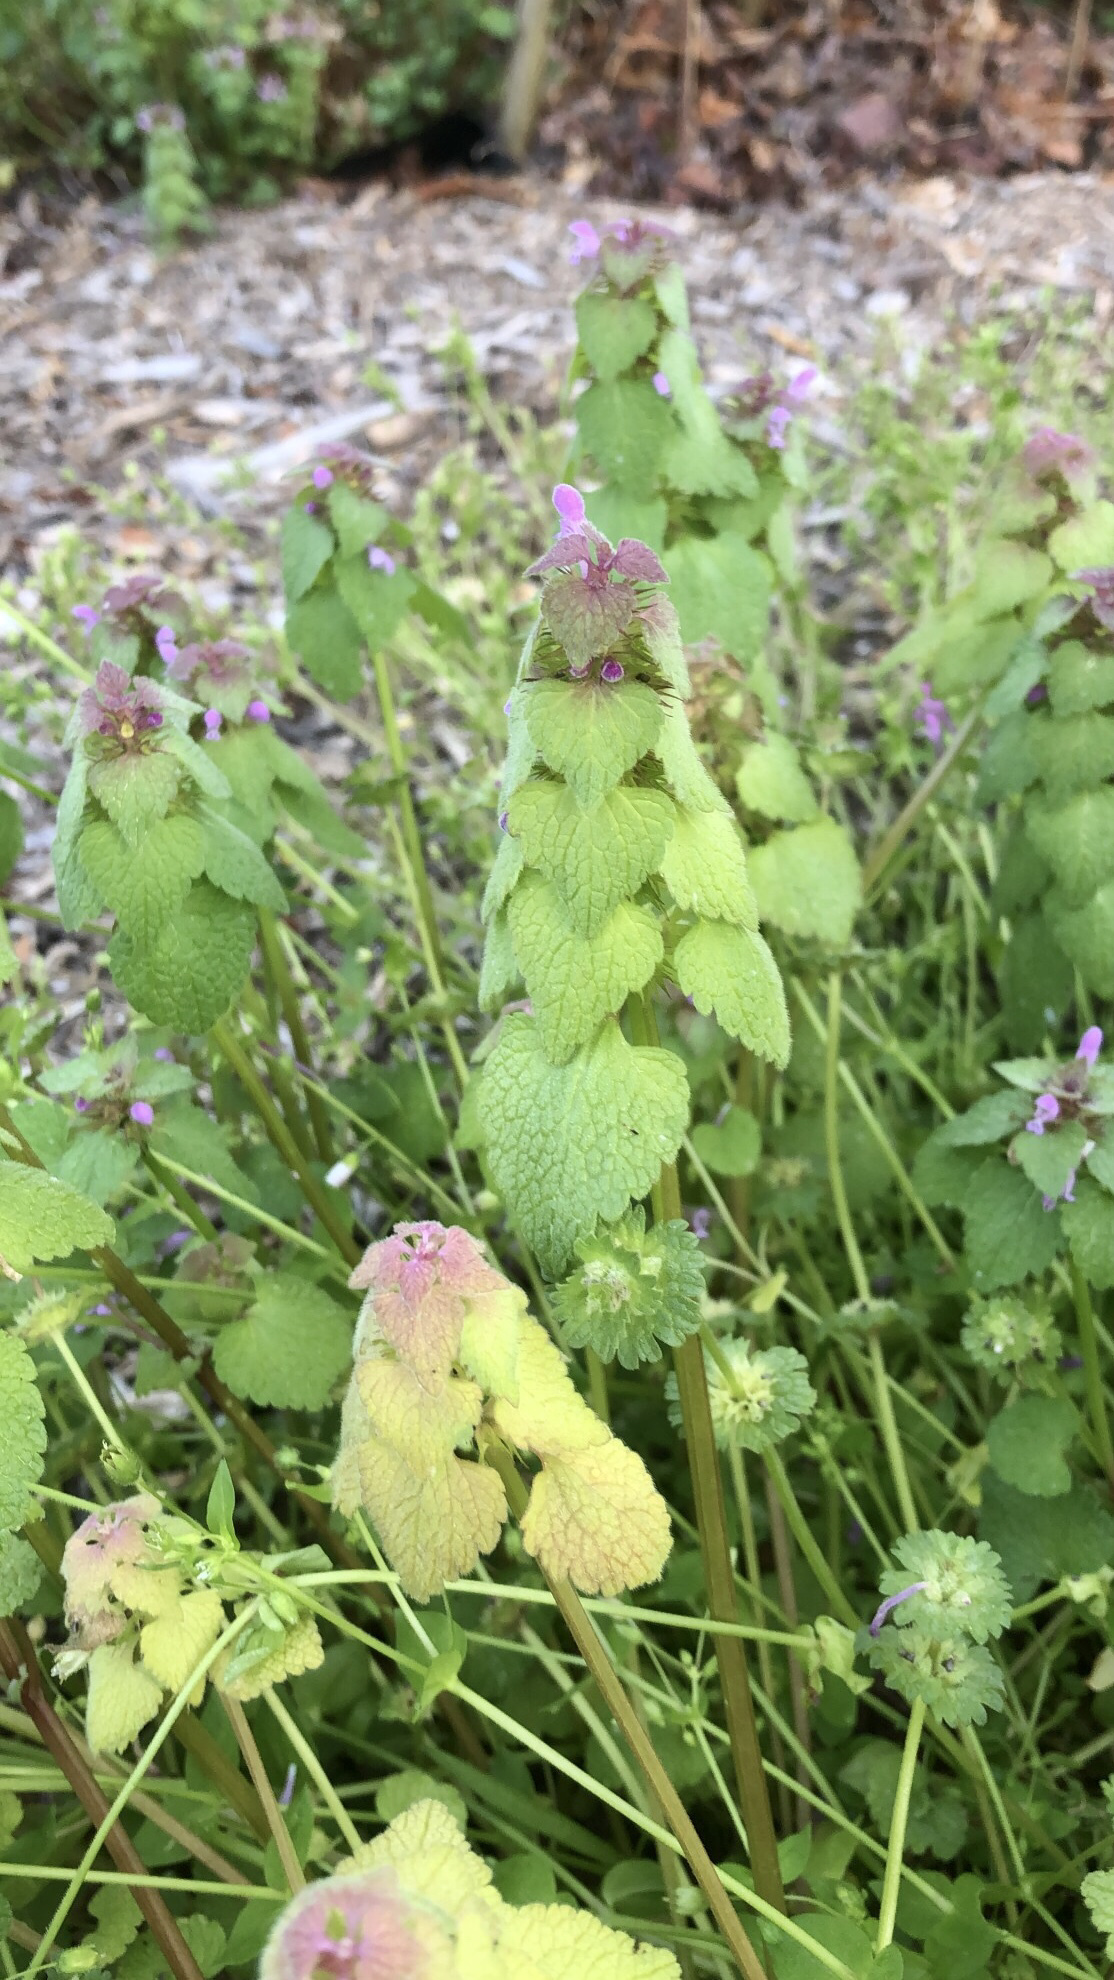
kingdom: Plantae
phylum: Tracheophyta
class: Magnoliopsida
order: Lamiales
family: Lamiaceae
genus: Lamium
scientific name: Lamium purpureum
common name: Red dead-nettle
